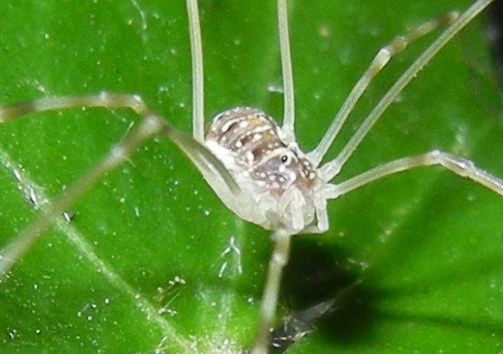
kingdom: Animalia
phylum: Arthropoda
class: Arachnida
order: Opiliones
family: Phalangiidae
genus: Opilio
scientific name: Opilio canestrinii
